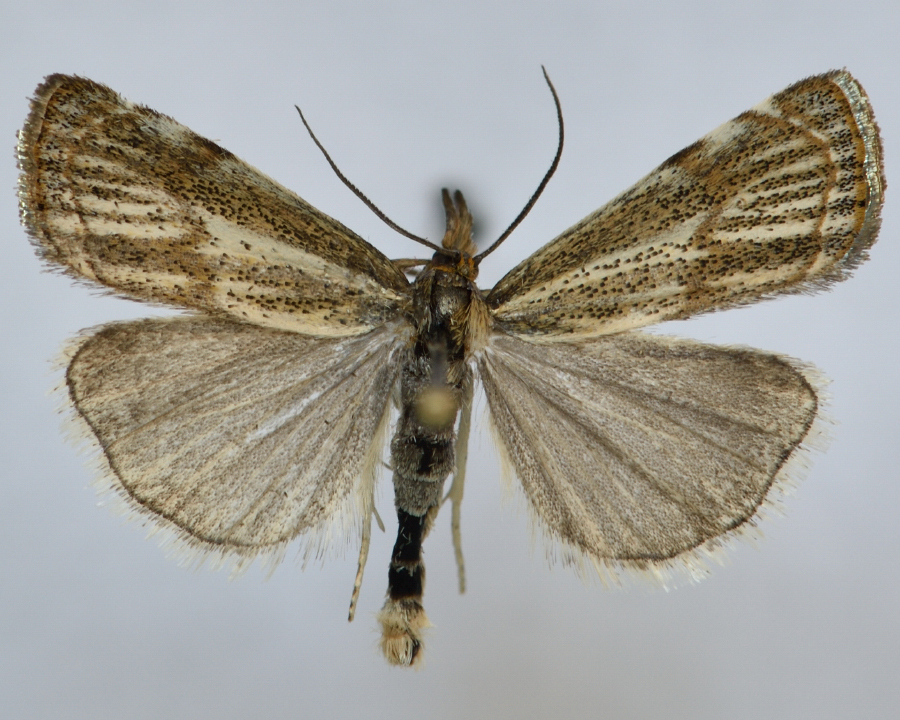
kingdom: Animalia
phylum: Arthropoda
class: Insecta
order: Lepidoptera
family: Crambidae
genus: Thisanotia
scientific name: Thisanotia chrysonuchella
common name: Powdered grass-veneer
